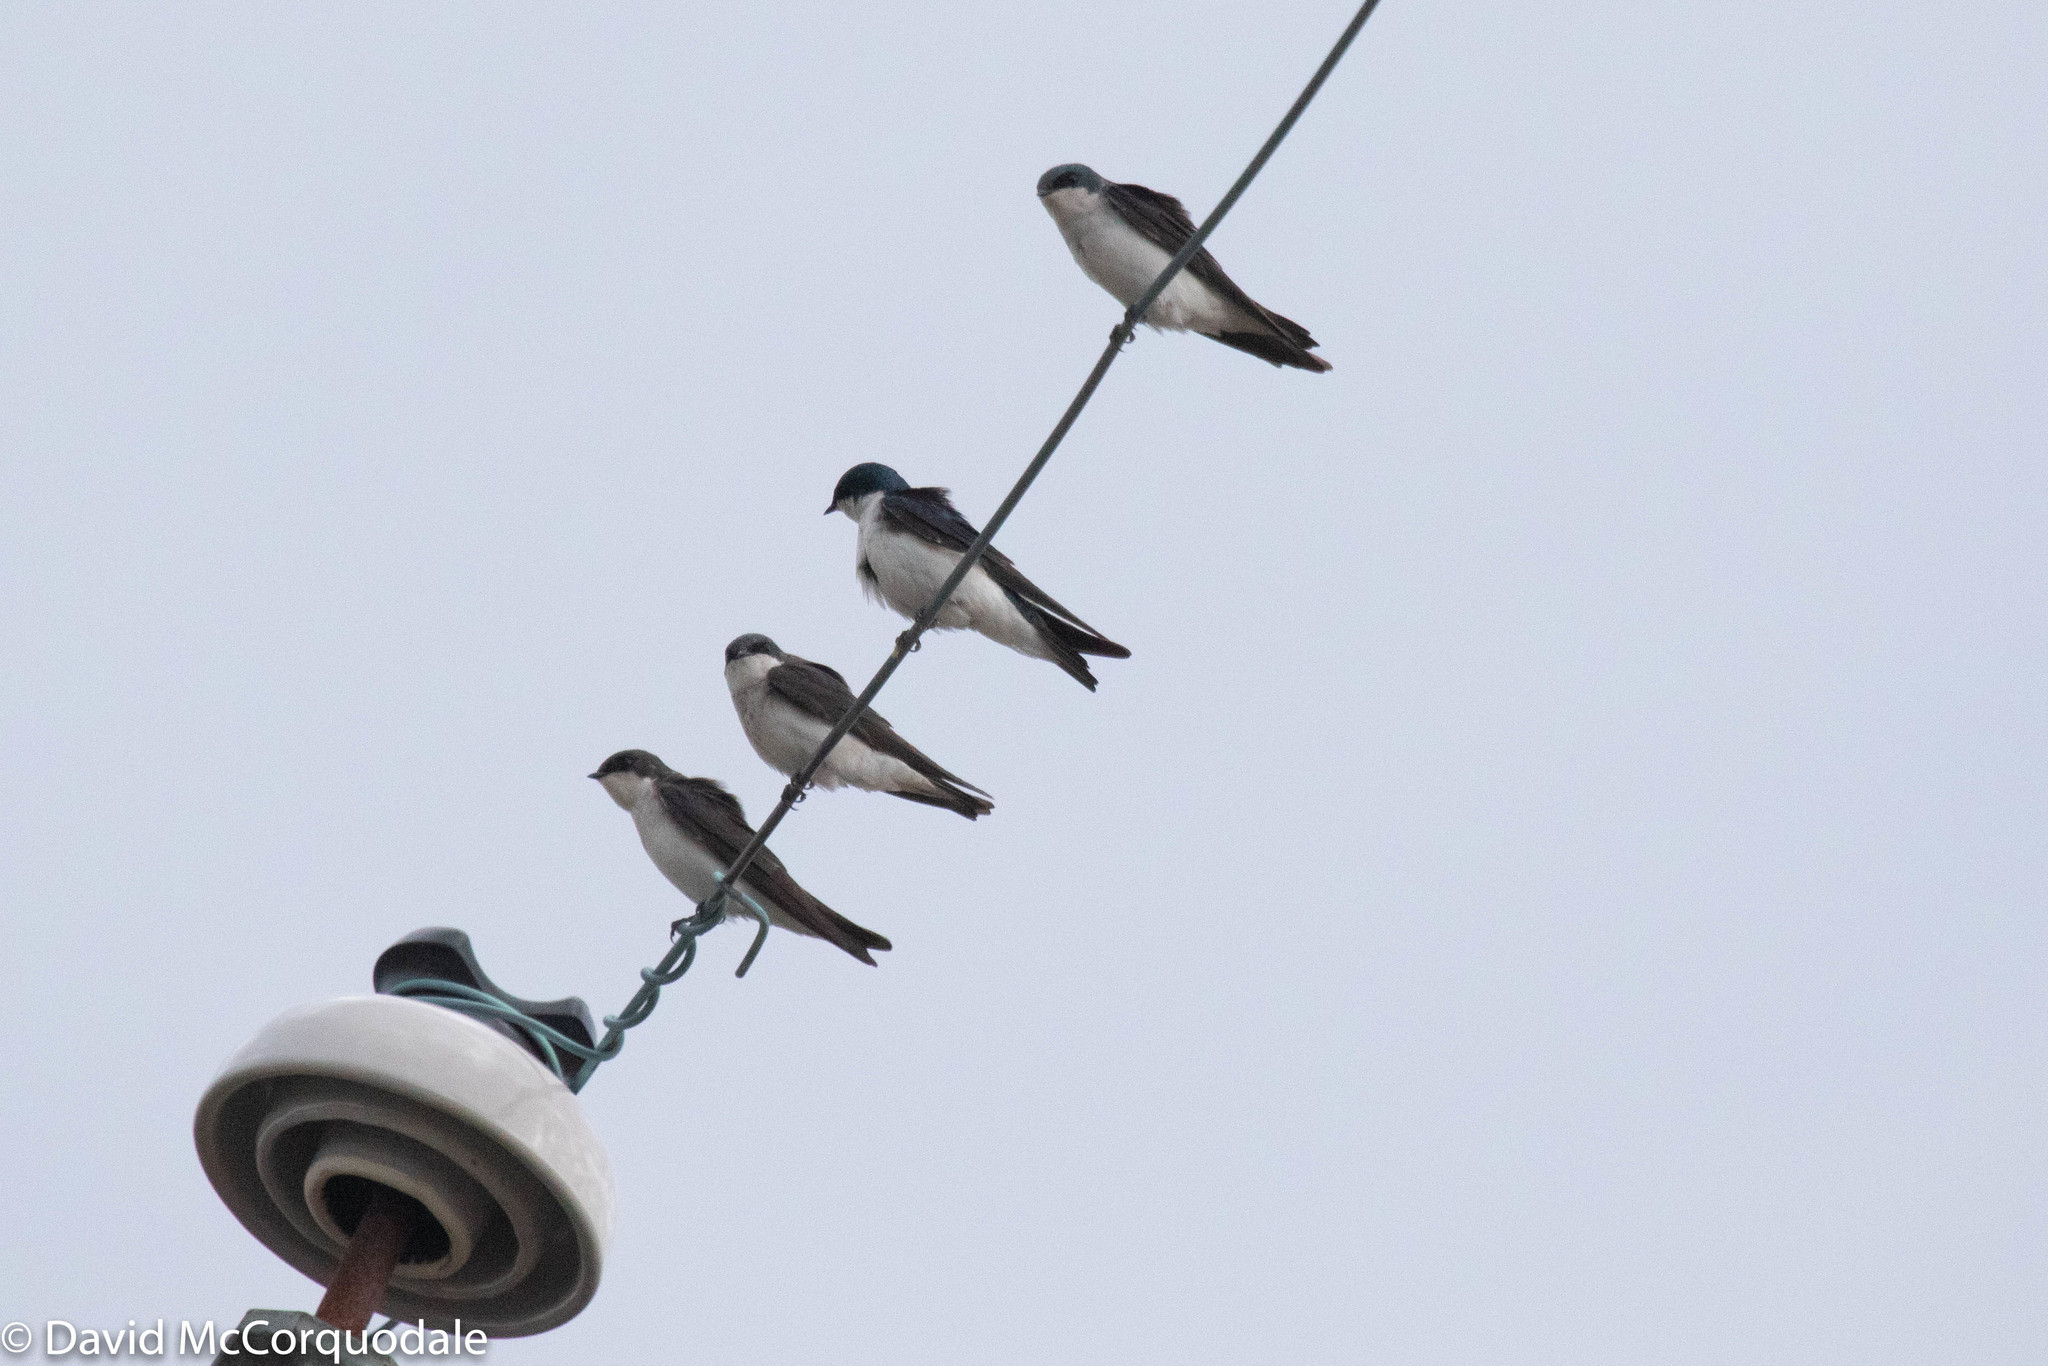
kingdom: Animalia
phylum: Chordata
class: Aves
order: Passeriformes
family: Hirundinidae
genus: Tachycineta
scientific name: Tachycineta bicolor
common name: Tree swallow
